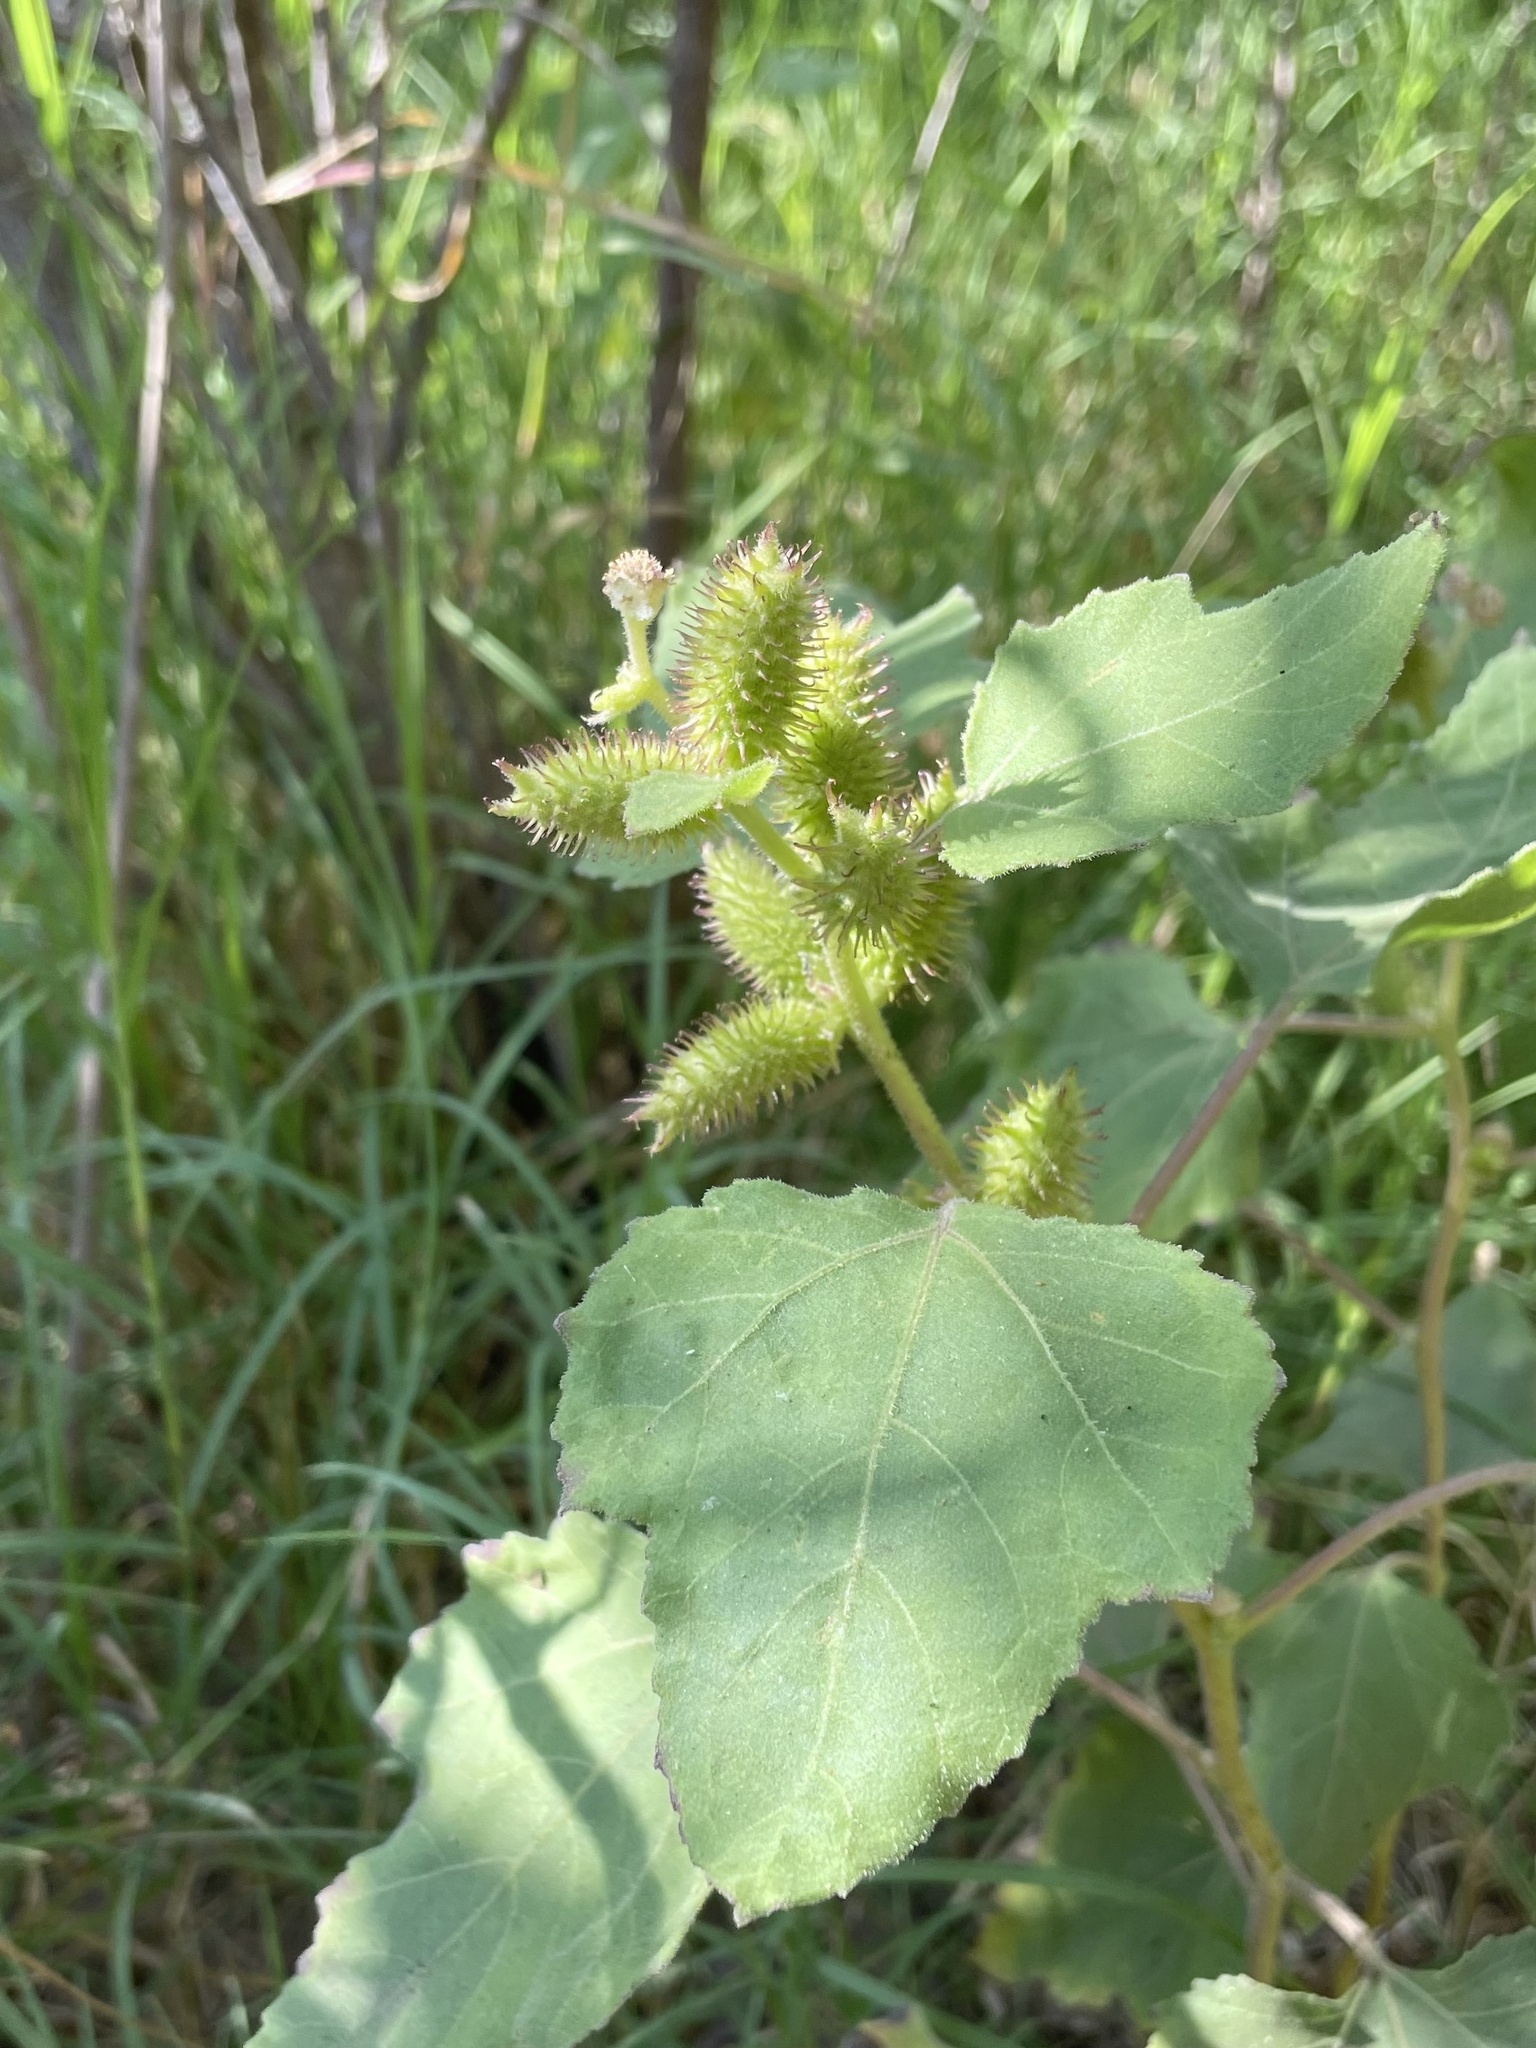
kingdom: Plantae
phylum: Tracheophyta
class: Magnoliopsida
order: Asterales
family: Asteraceae
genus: Xanthium
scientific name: Xanthium strumarium
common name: Rough cocklebur
